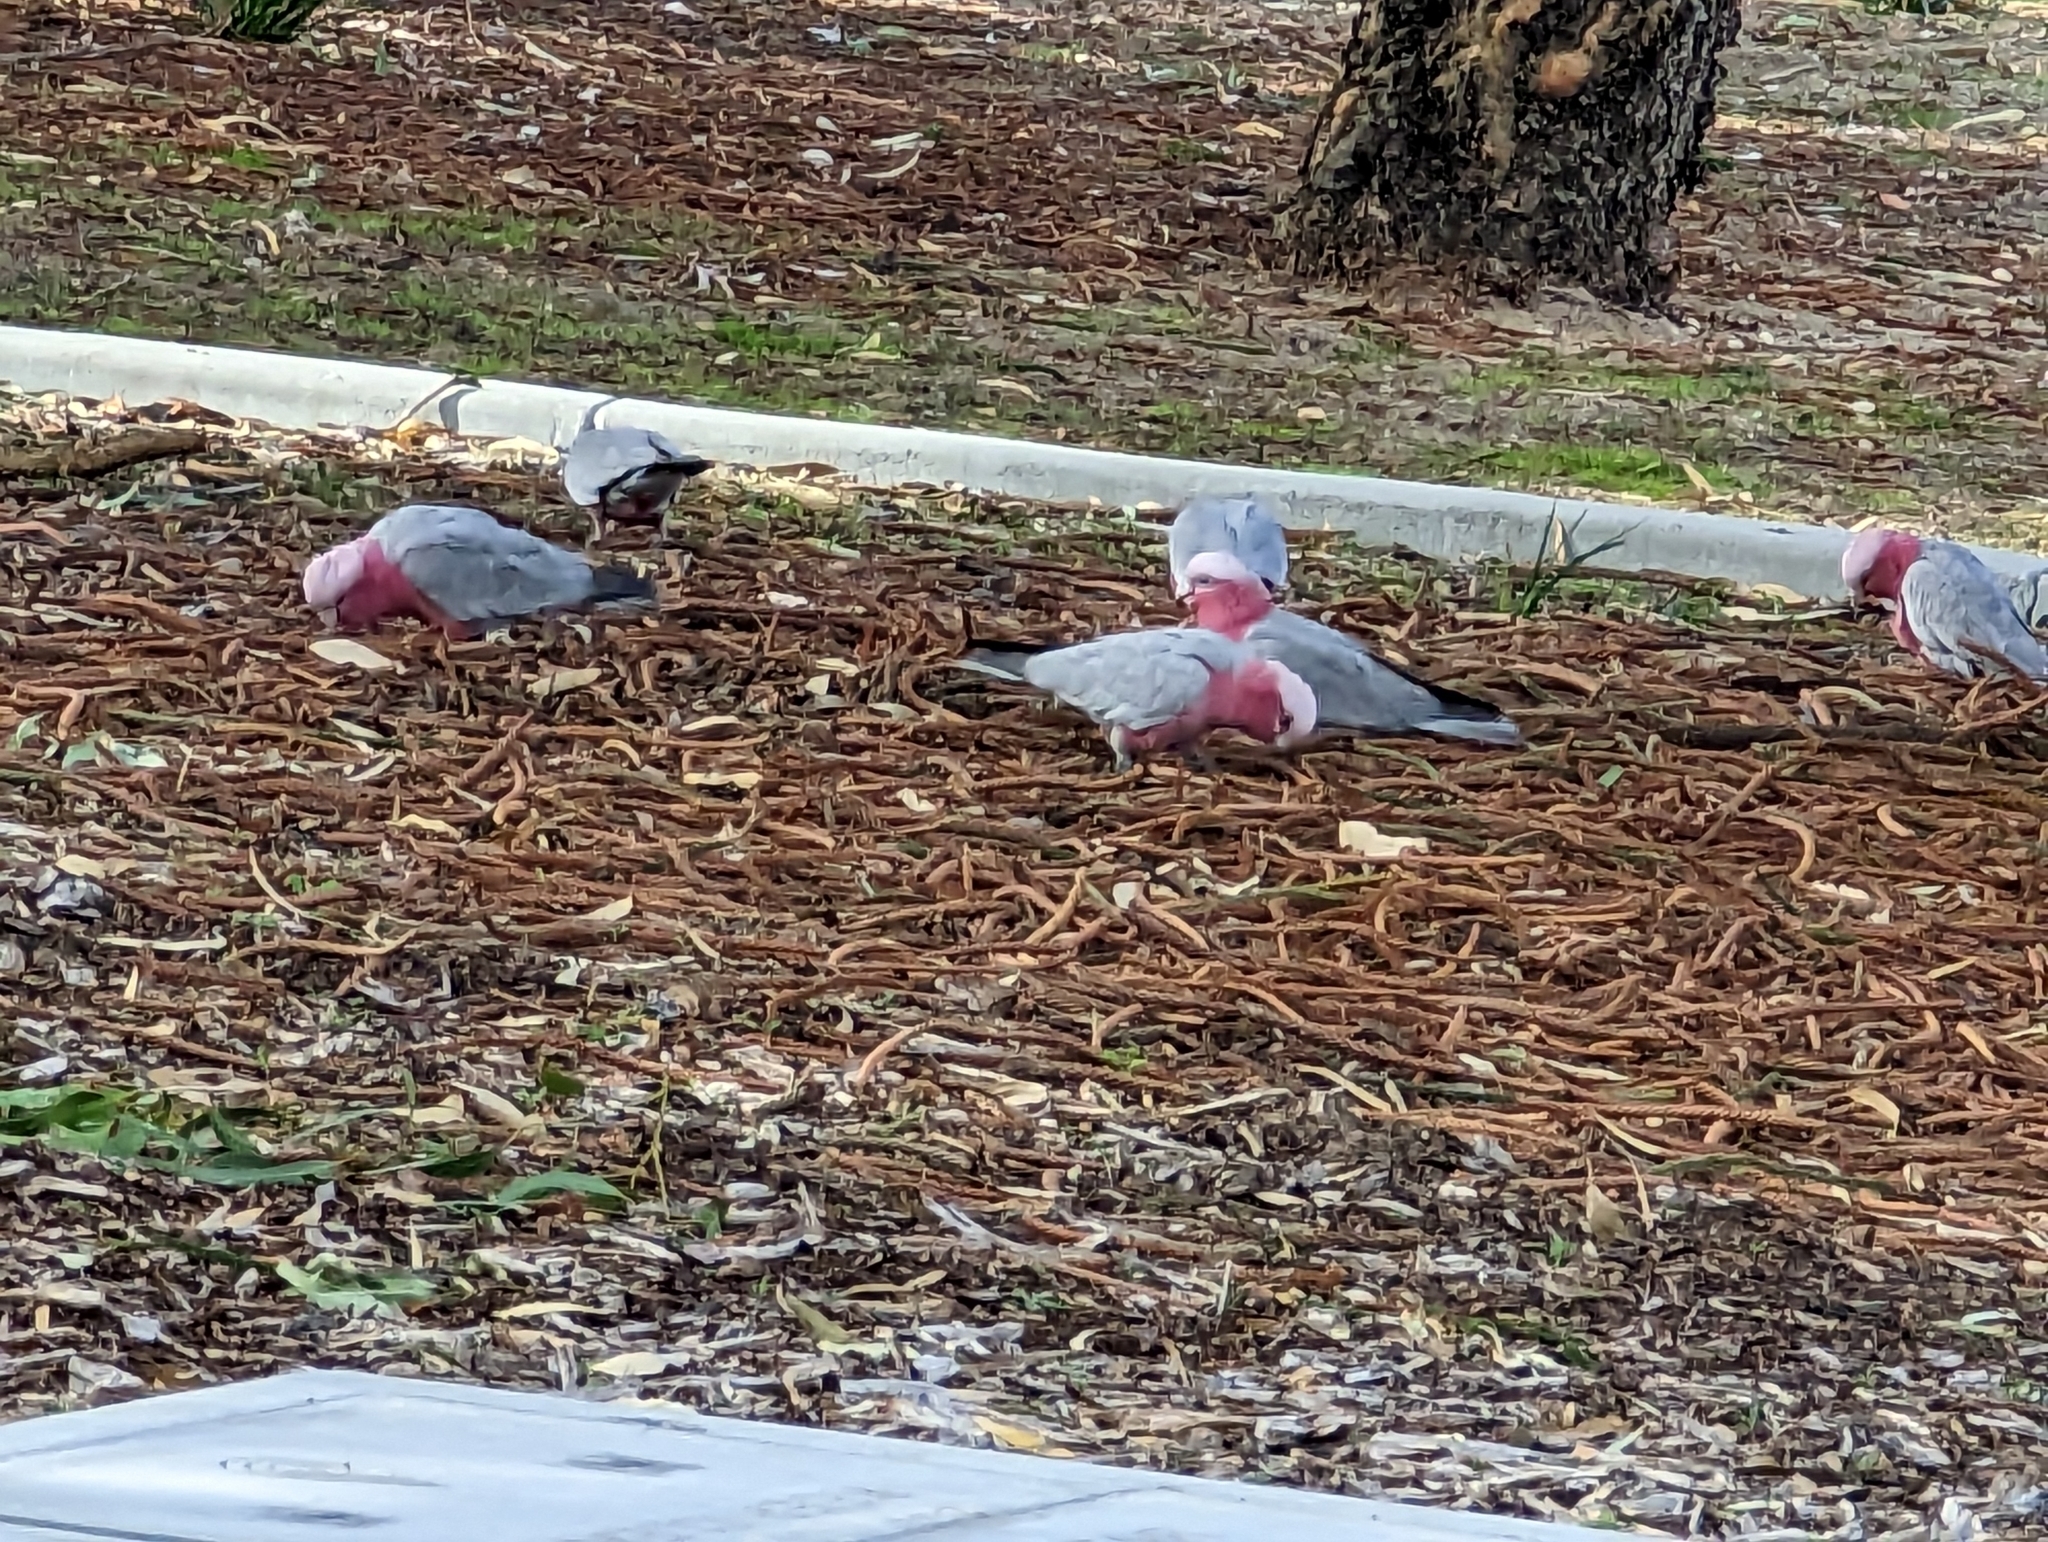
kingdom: Animalia
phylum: Chordata
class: Aves
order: Psittaciformes
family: Psittacidae
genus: Eolophus
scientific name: Eolophus roseicapilla
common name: Galah
